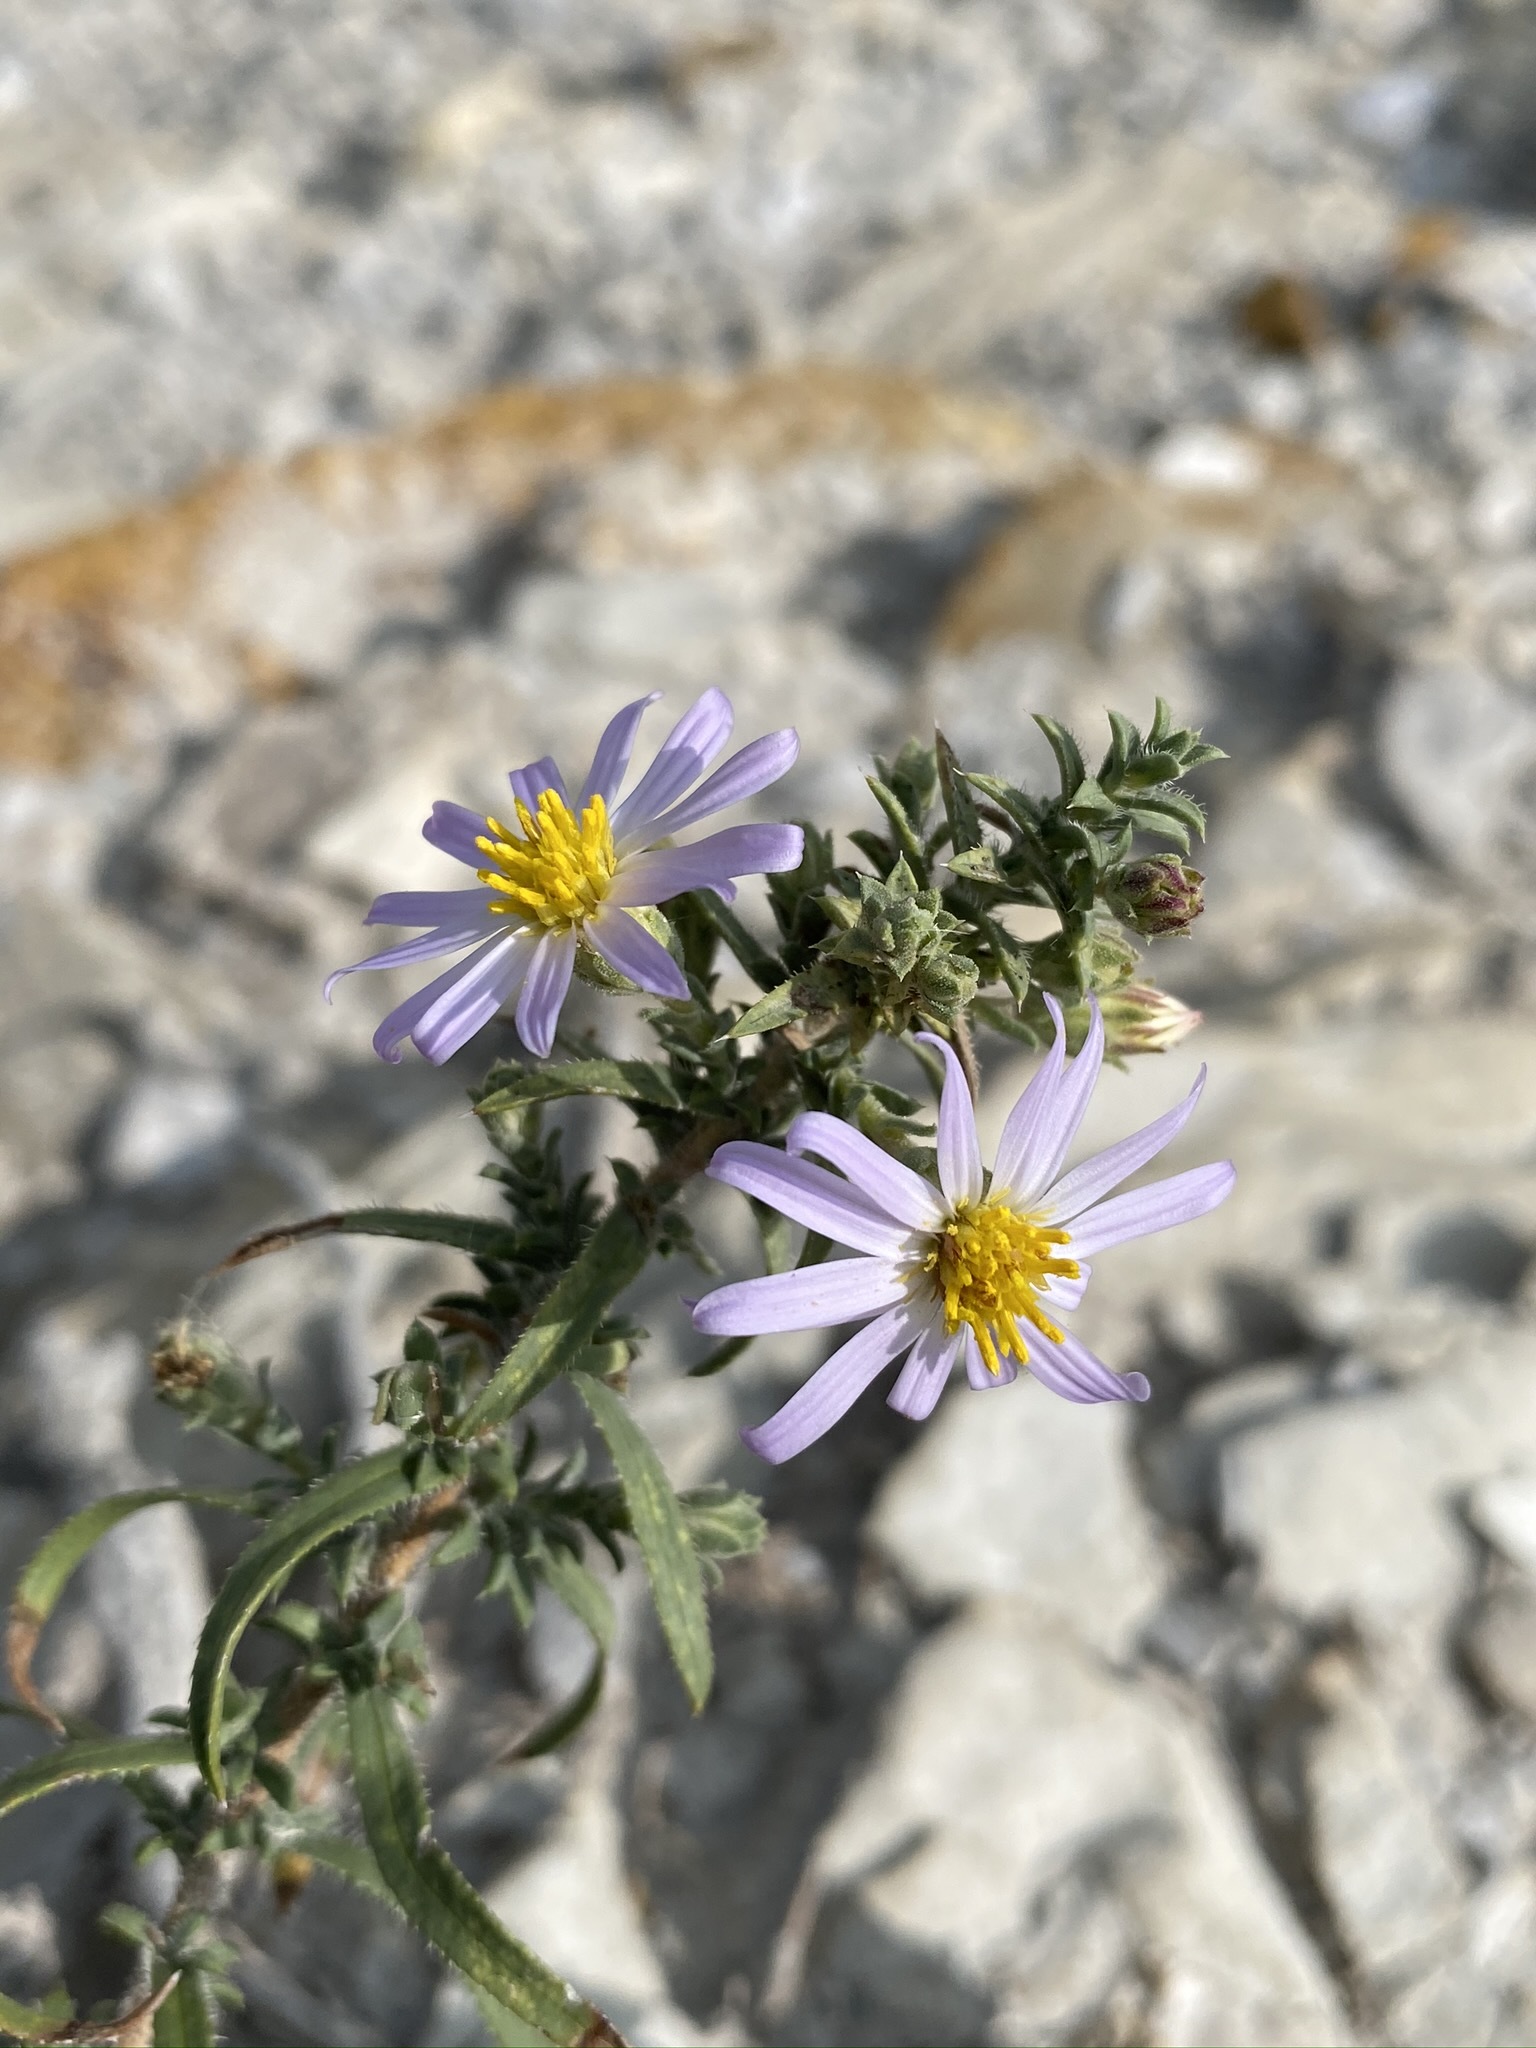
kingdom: Plantae
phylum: Tracheophyta
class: Magnoliopsida
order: Asterales
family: Asteraceae
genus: Symphyotrichum
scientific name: Symphyotrichum fendleri
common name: Fendler's aster
